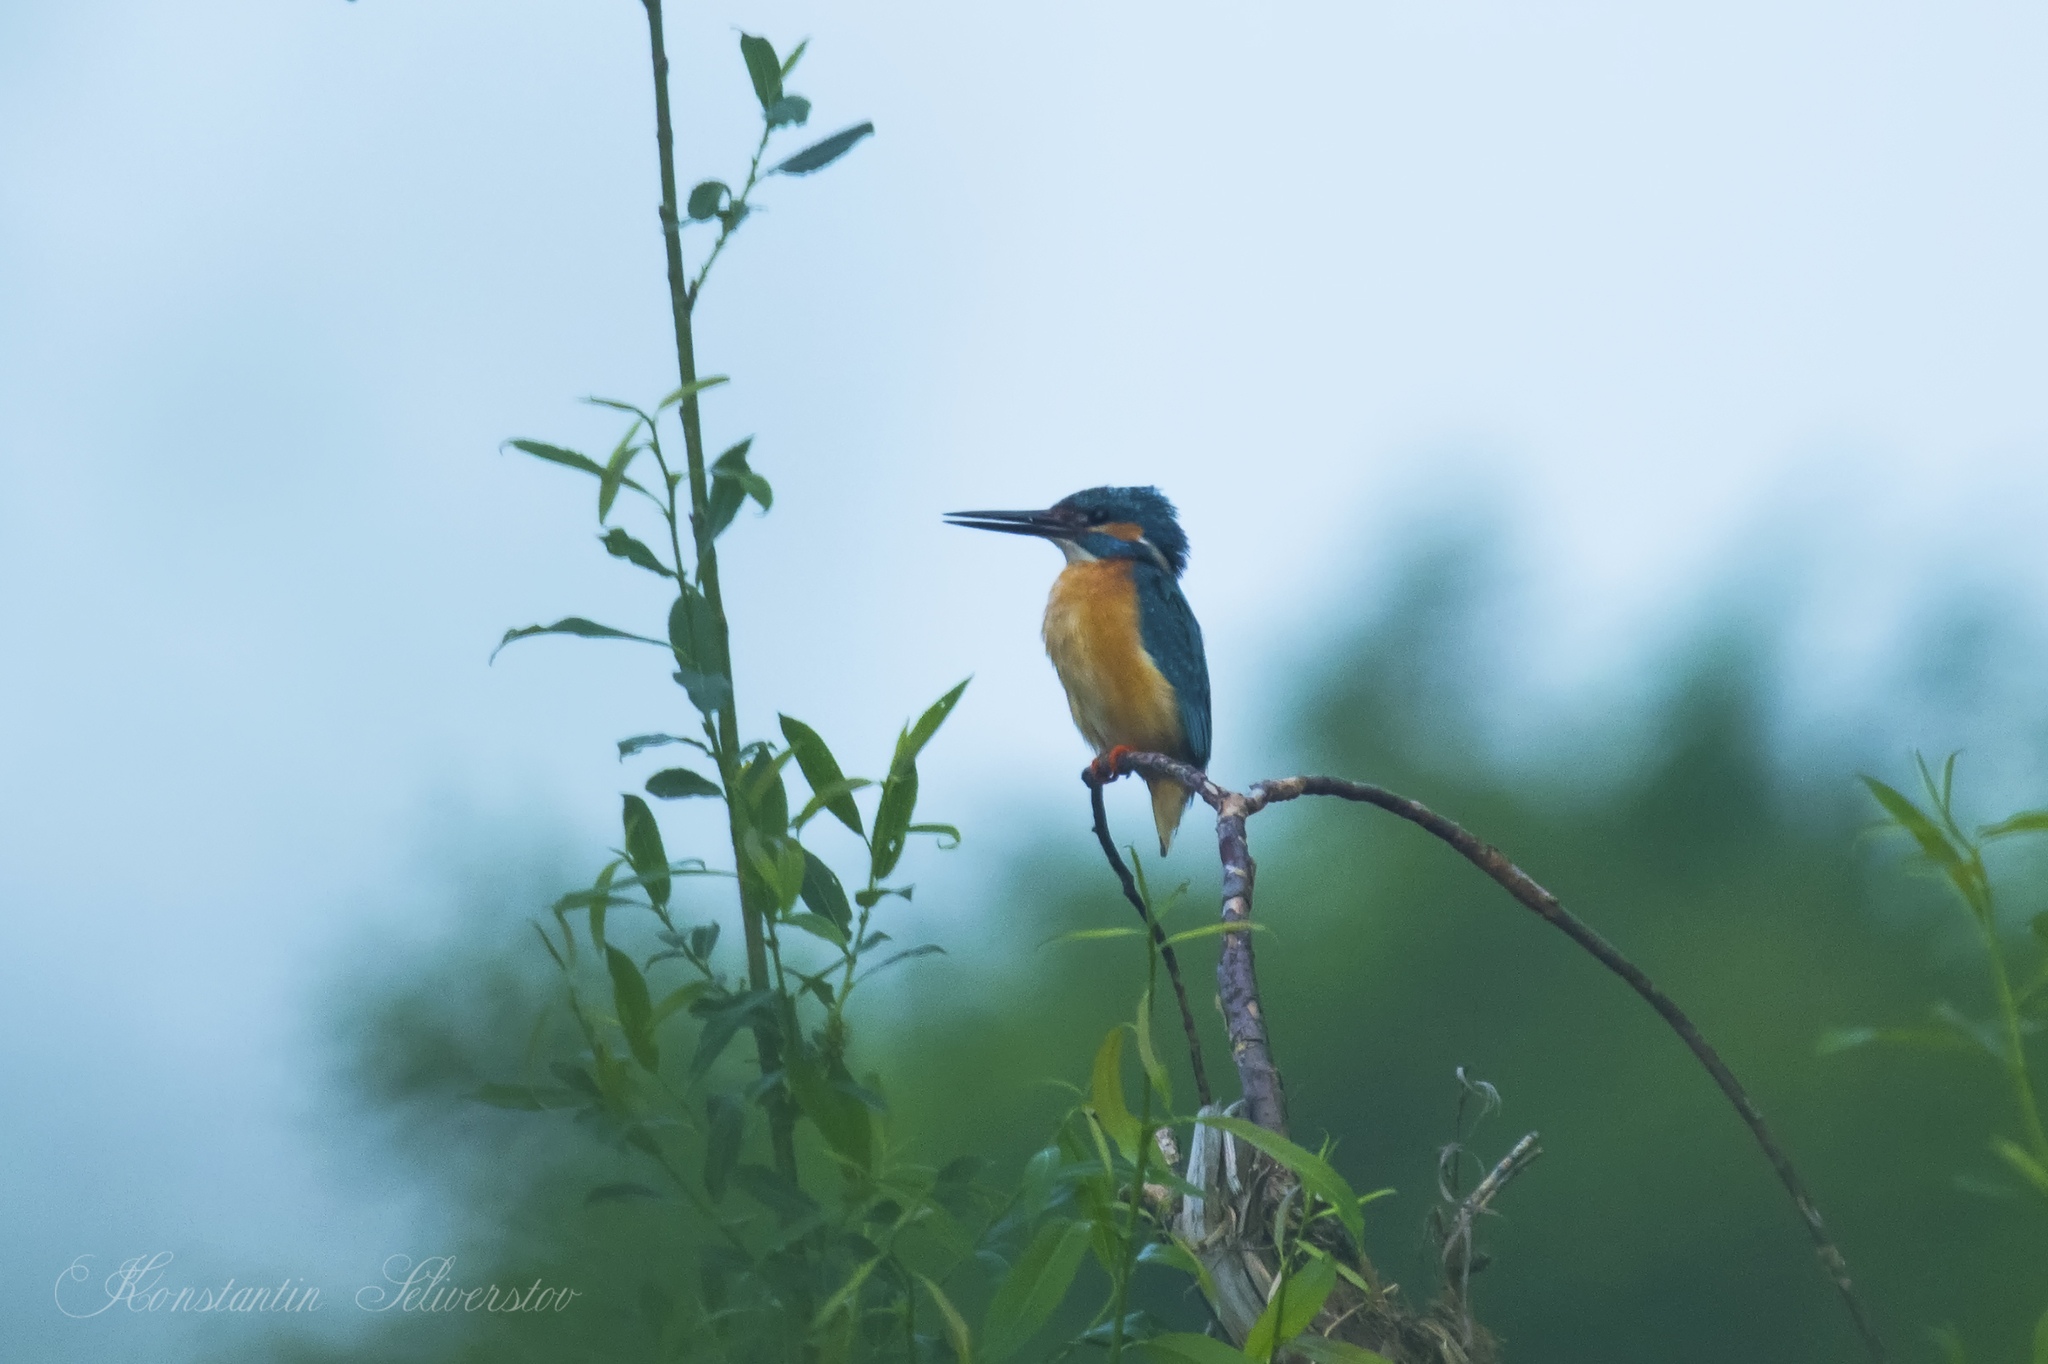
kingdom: Animalia
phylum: Chordata
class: Aves
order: Coraciiformes
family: Alcedinidae
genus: Alcedo
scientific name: Alcedo atthis
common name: Common kingfisher
